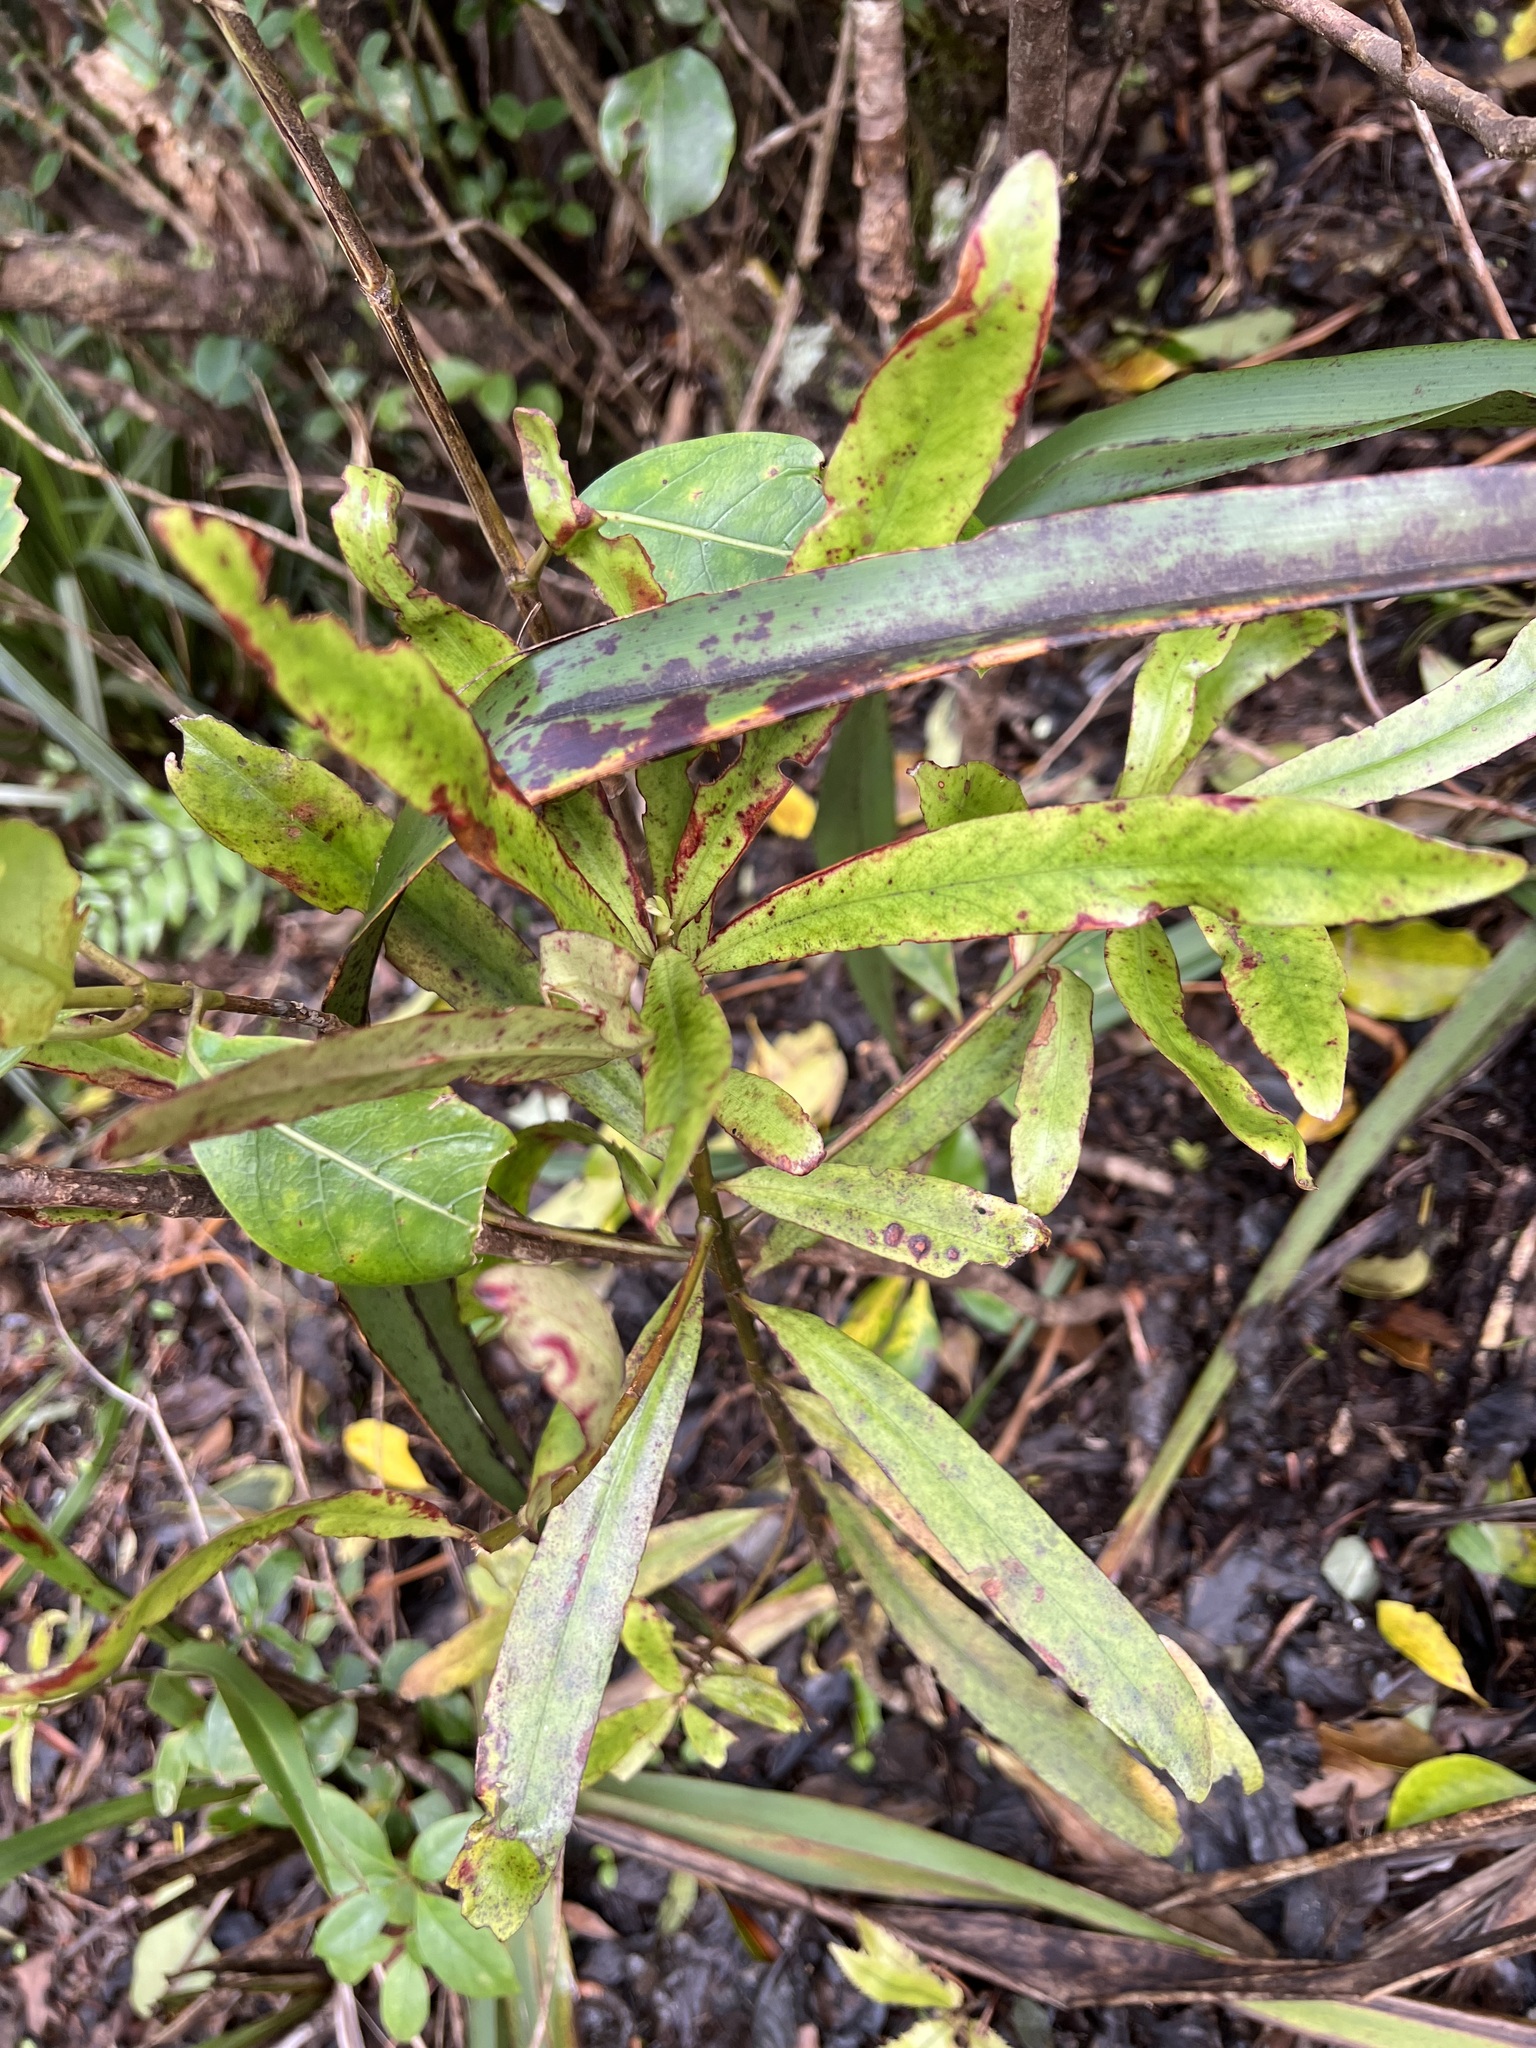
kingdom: Plantae
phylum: Tracheophyta
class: Magnoliopsida
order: Ericales
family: Primulaceae
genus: Myrsine
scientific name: Myrsine salicina
